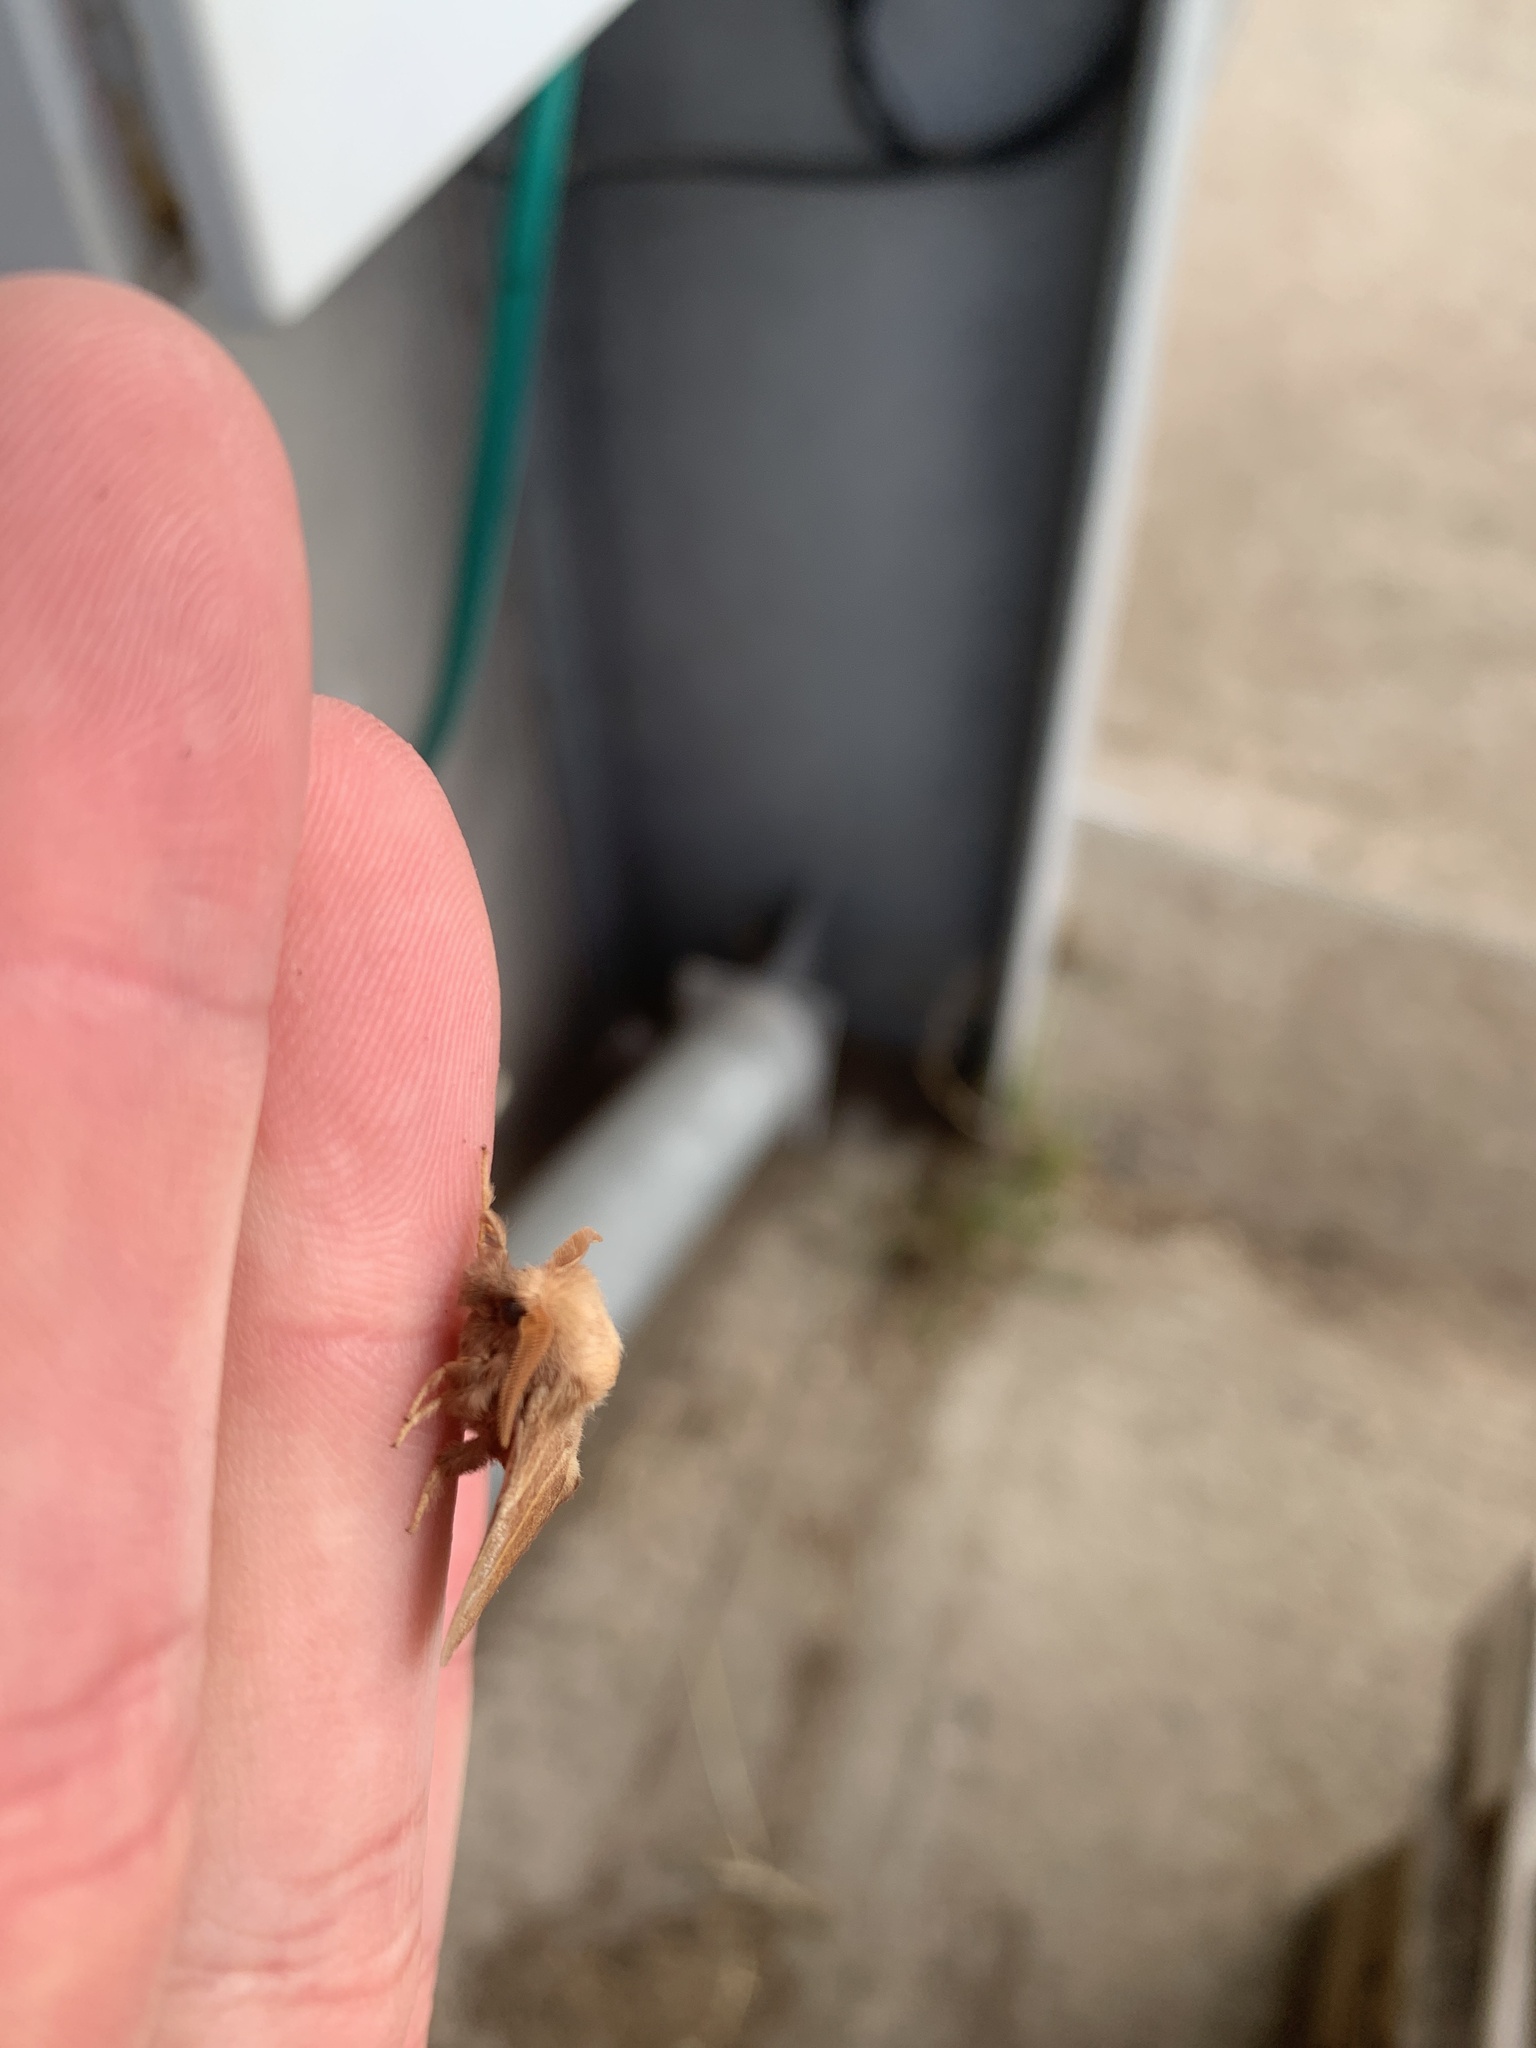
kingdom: Animalia
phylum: Arthropoda
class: Insecta
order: Lepidoptera
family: Hepialidae
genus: Triodia
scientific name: Triodia sylvina
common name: Orange swift
